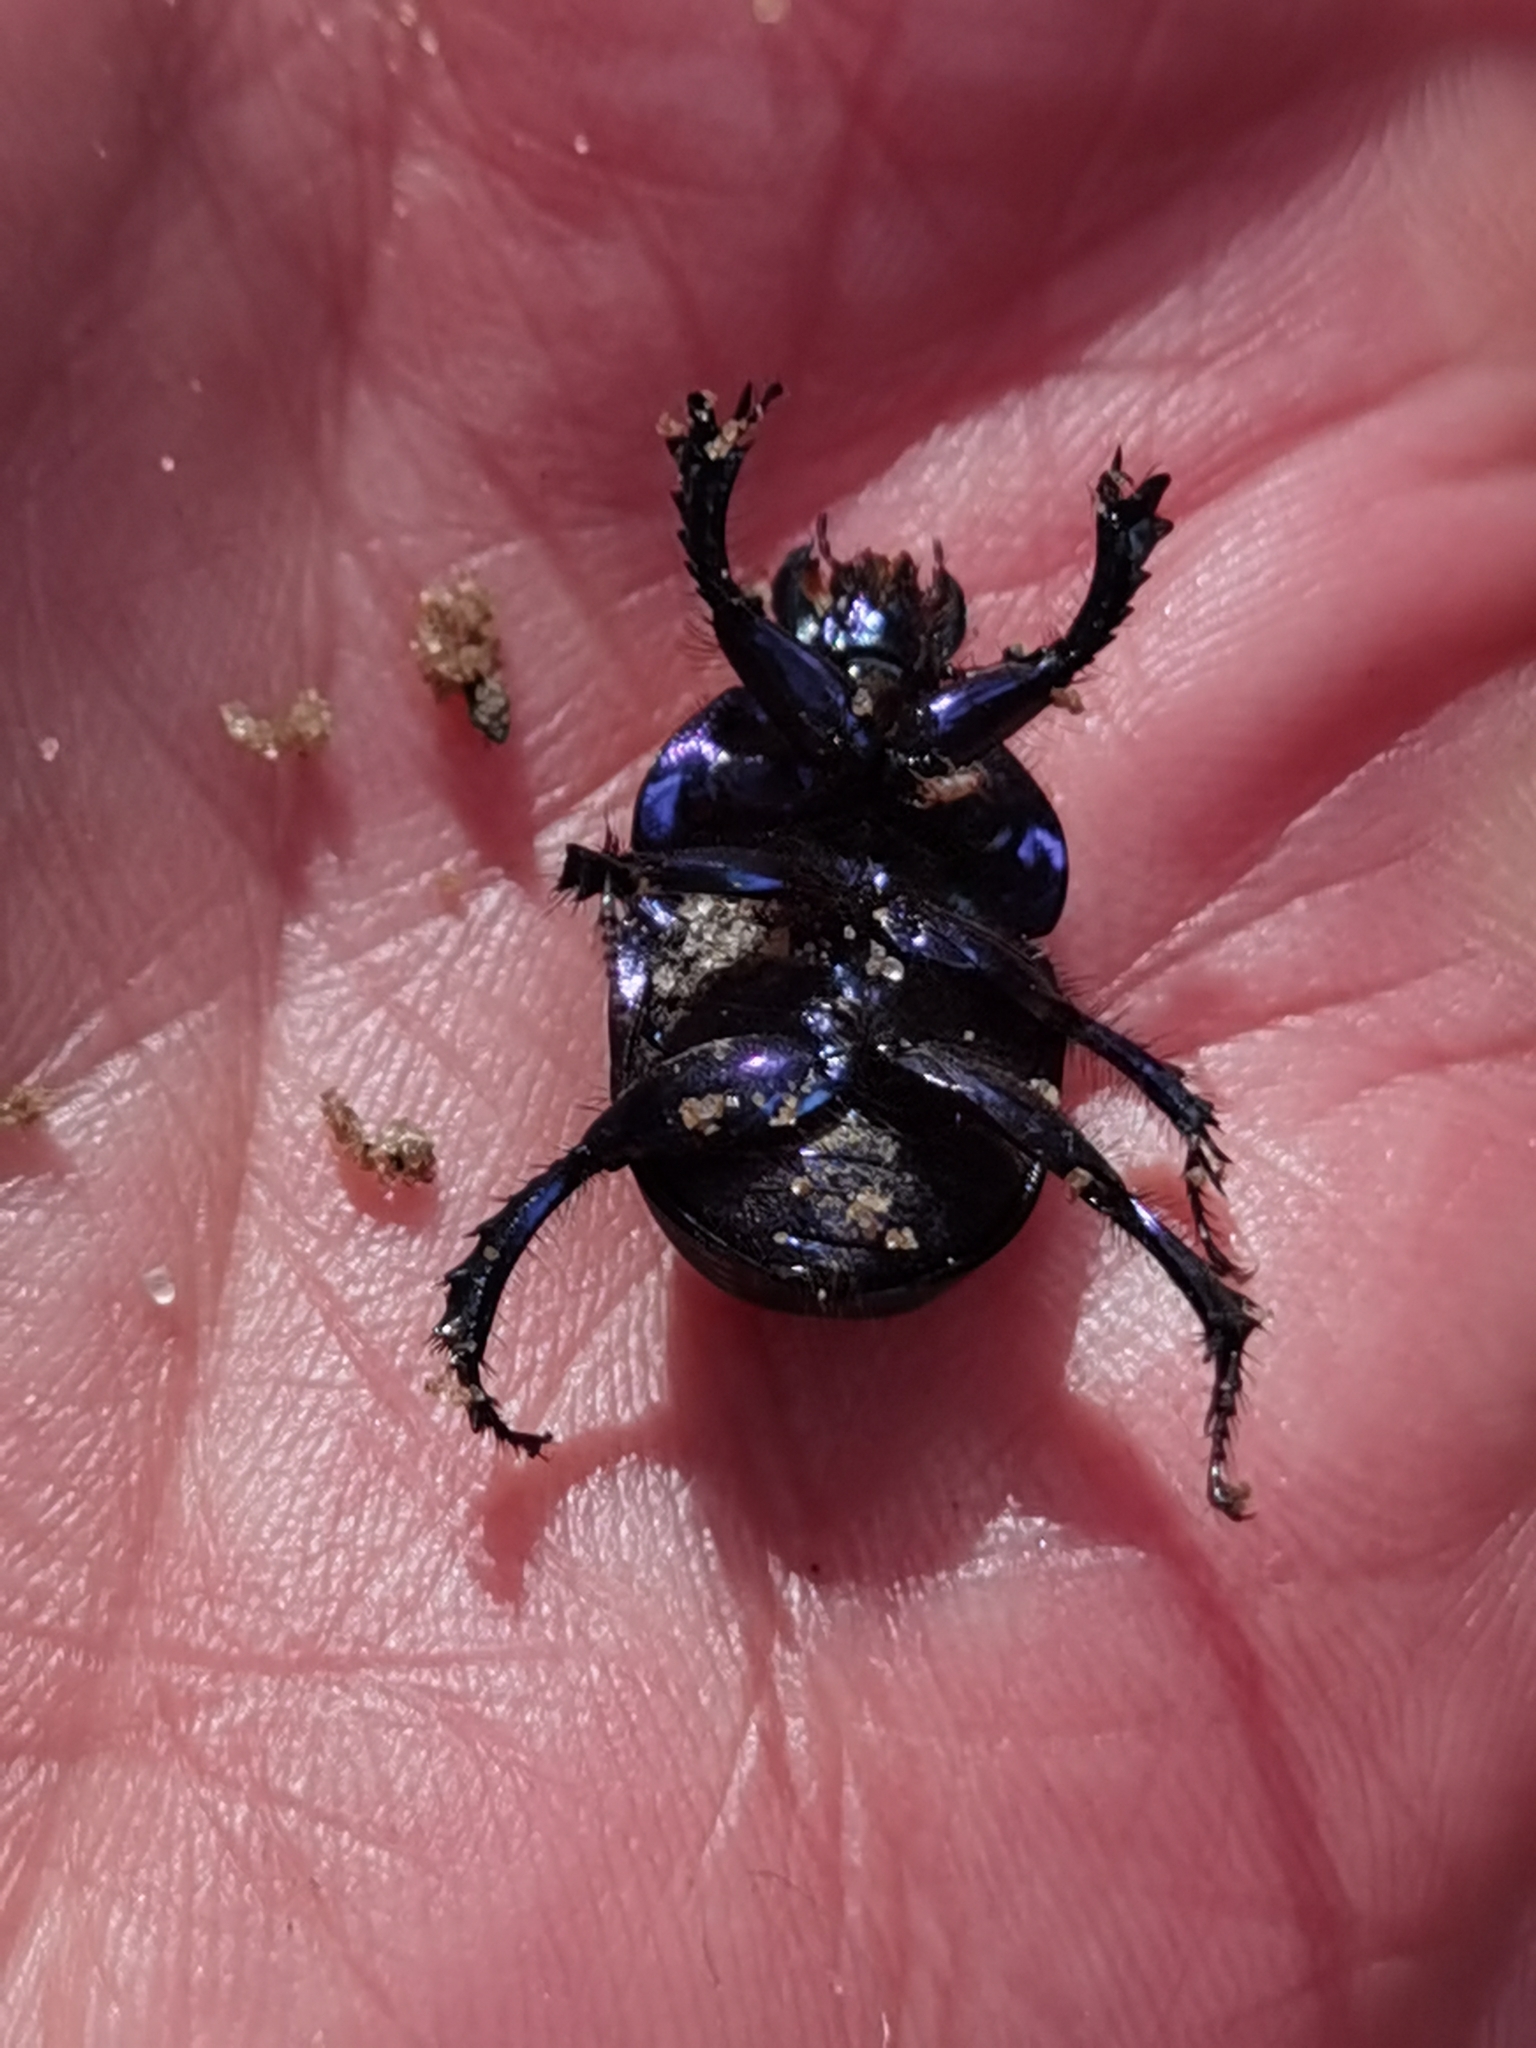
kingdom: Animalia
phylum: Arthropoda
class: Insecta
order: Coleoptera
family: Geotrupidae
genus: Anoplotrupes
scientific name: Anoplotrupes stercorosus
